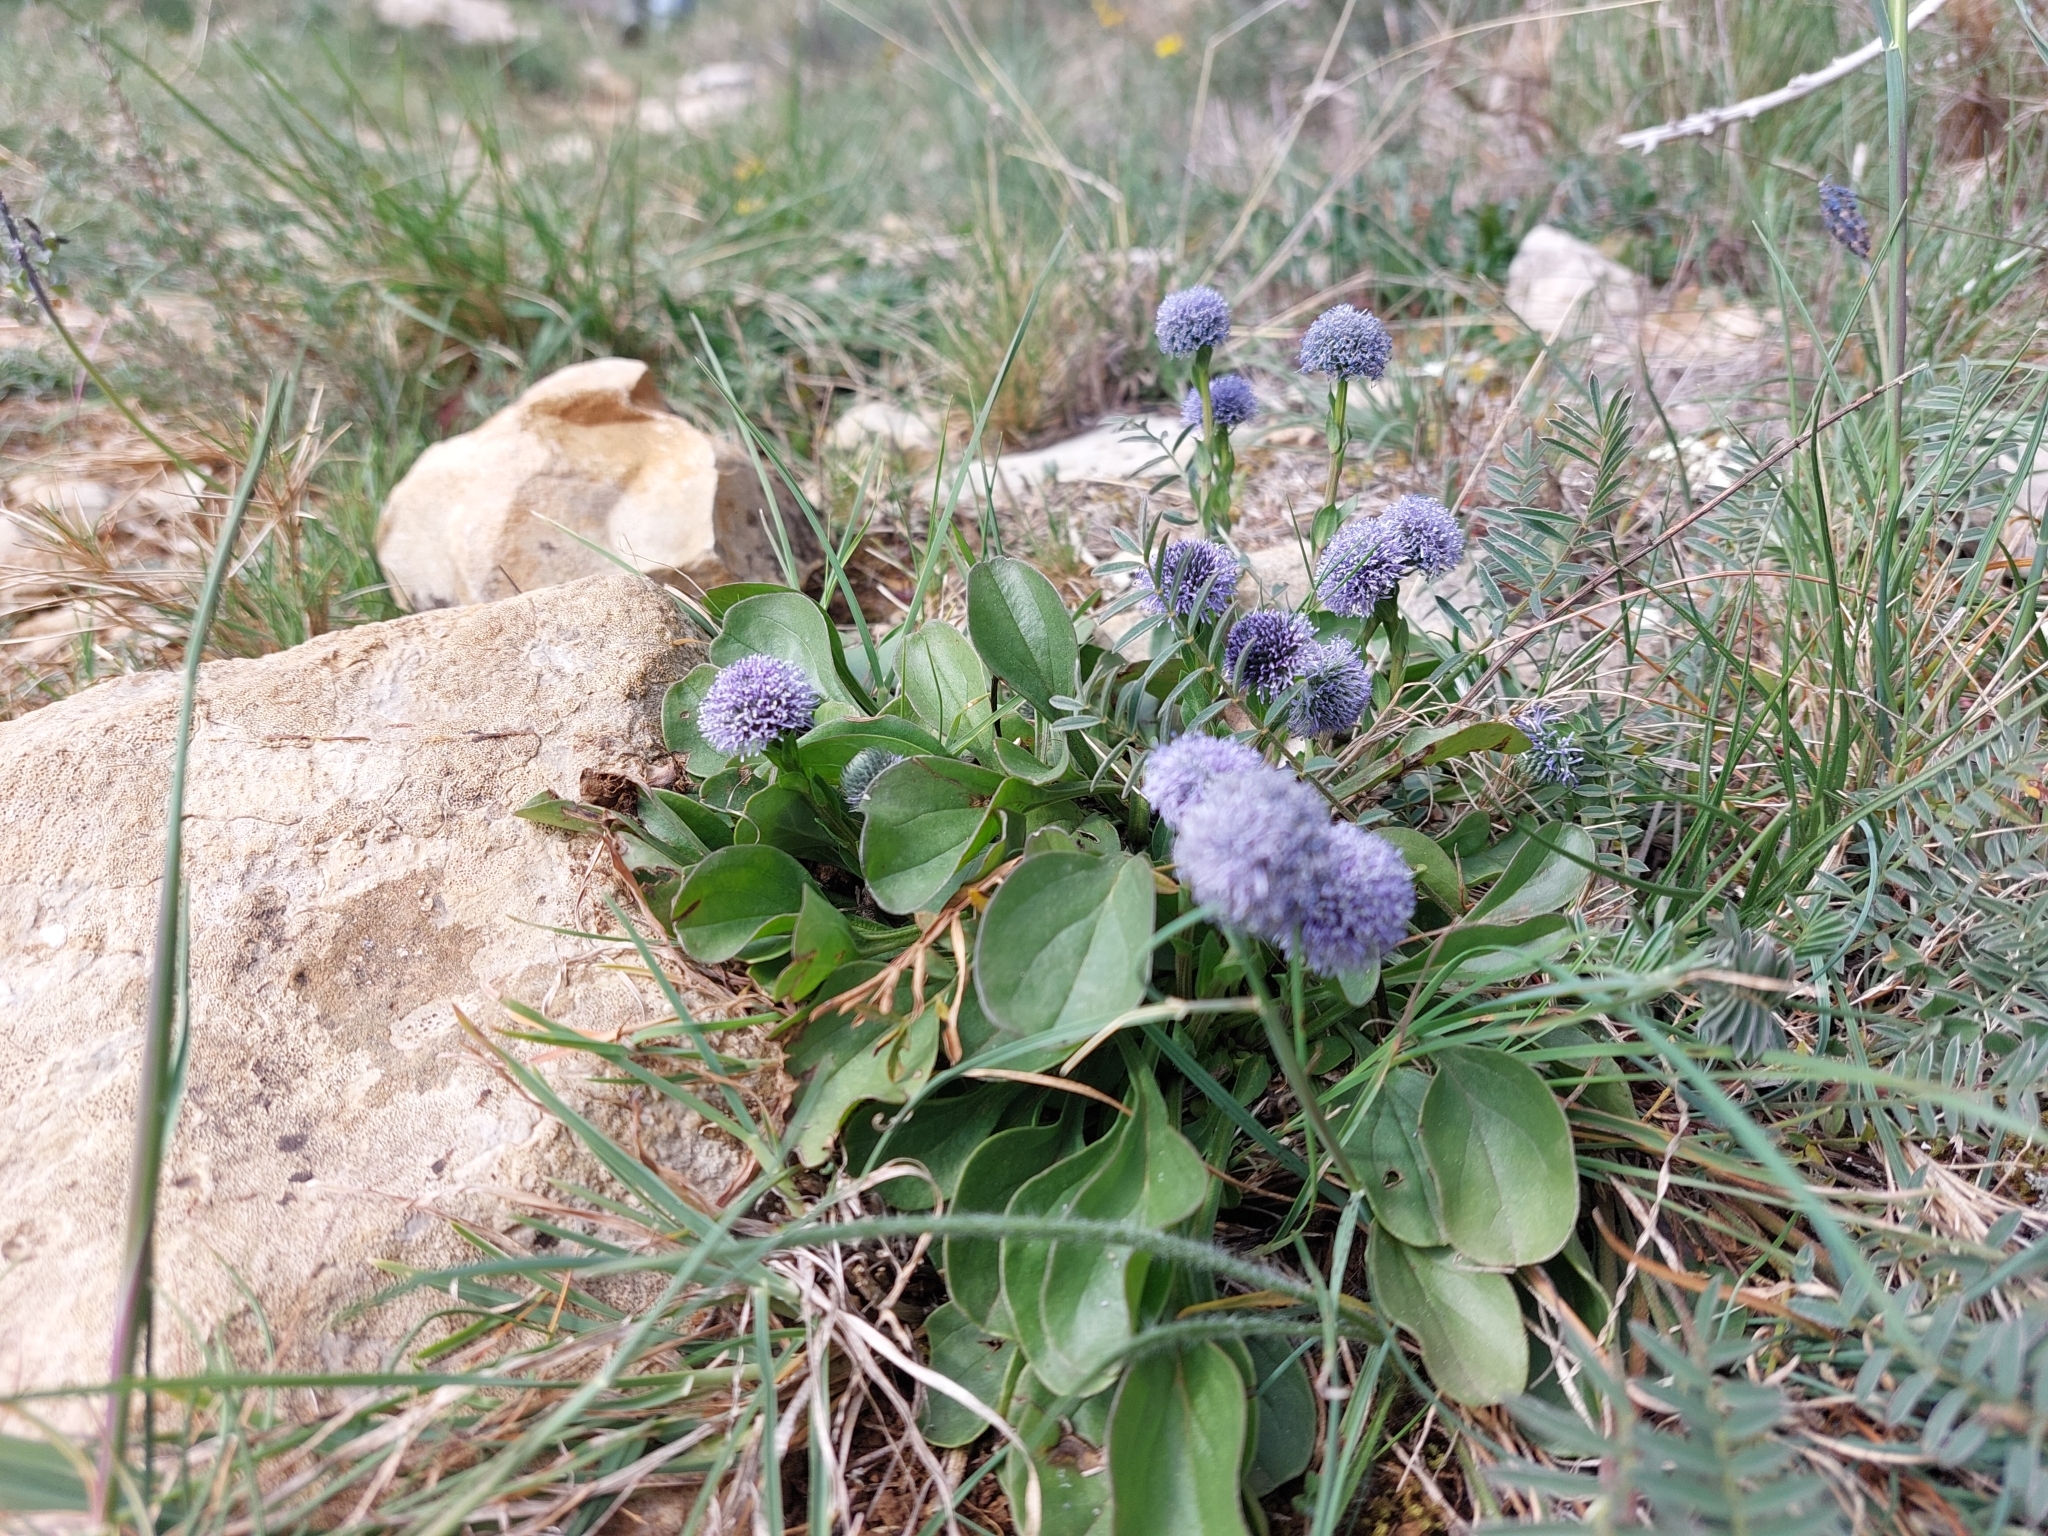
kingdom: Plantae
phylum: Tracheophyta
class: Magnoliopsida
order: Lamiales
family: Plantaginaceae
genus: Globularia
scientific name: Globularia bisnagarica
